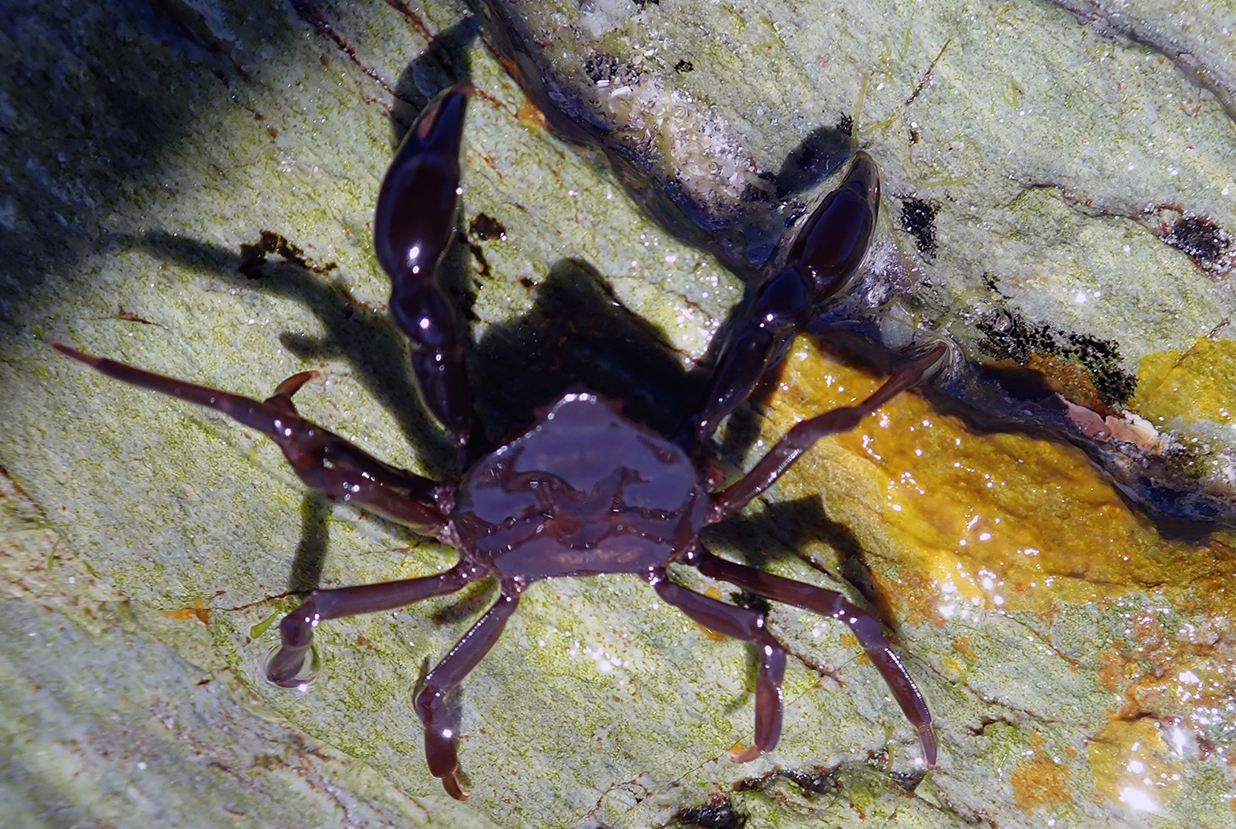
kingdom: Animalia
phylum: Arthropoda
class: Malacostraca
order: Decapoda
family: Hymenosomatidae
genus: Elamena
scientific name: Elamena producta
